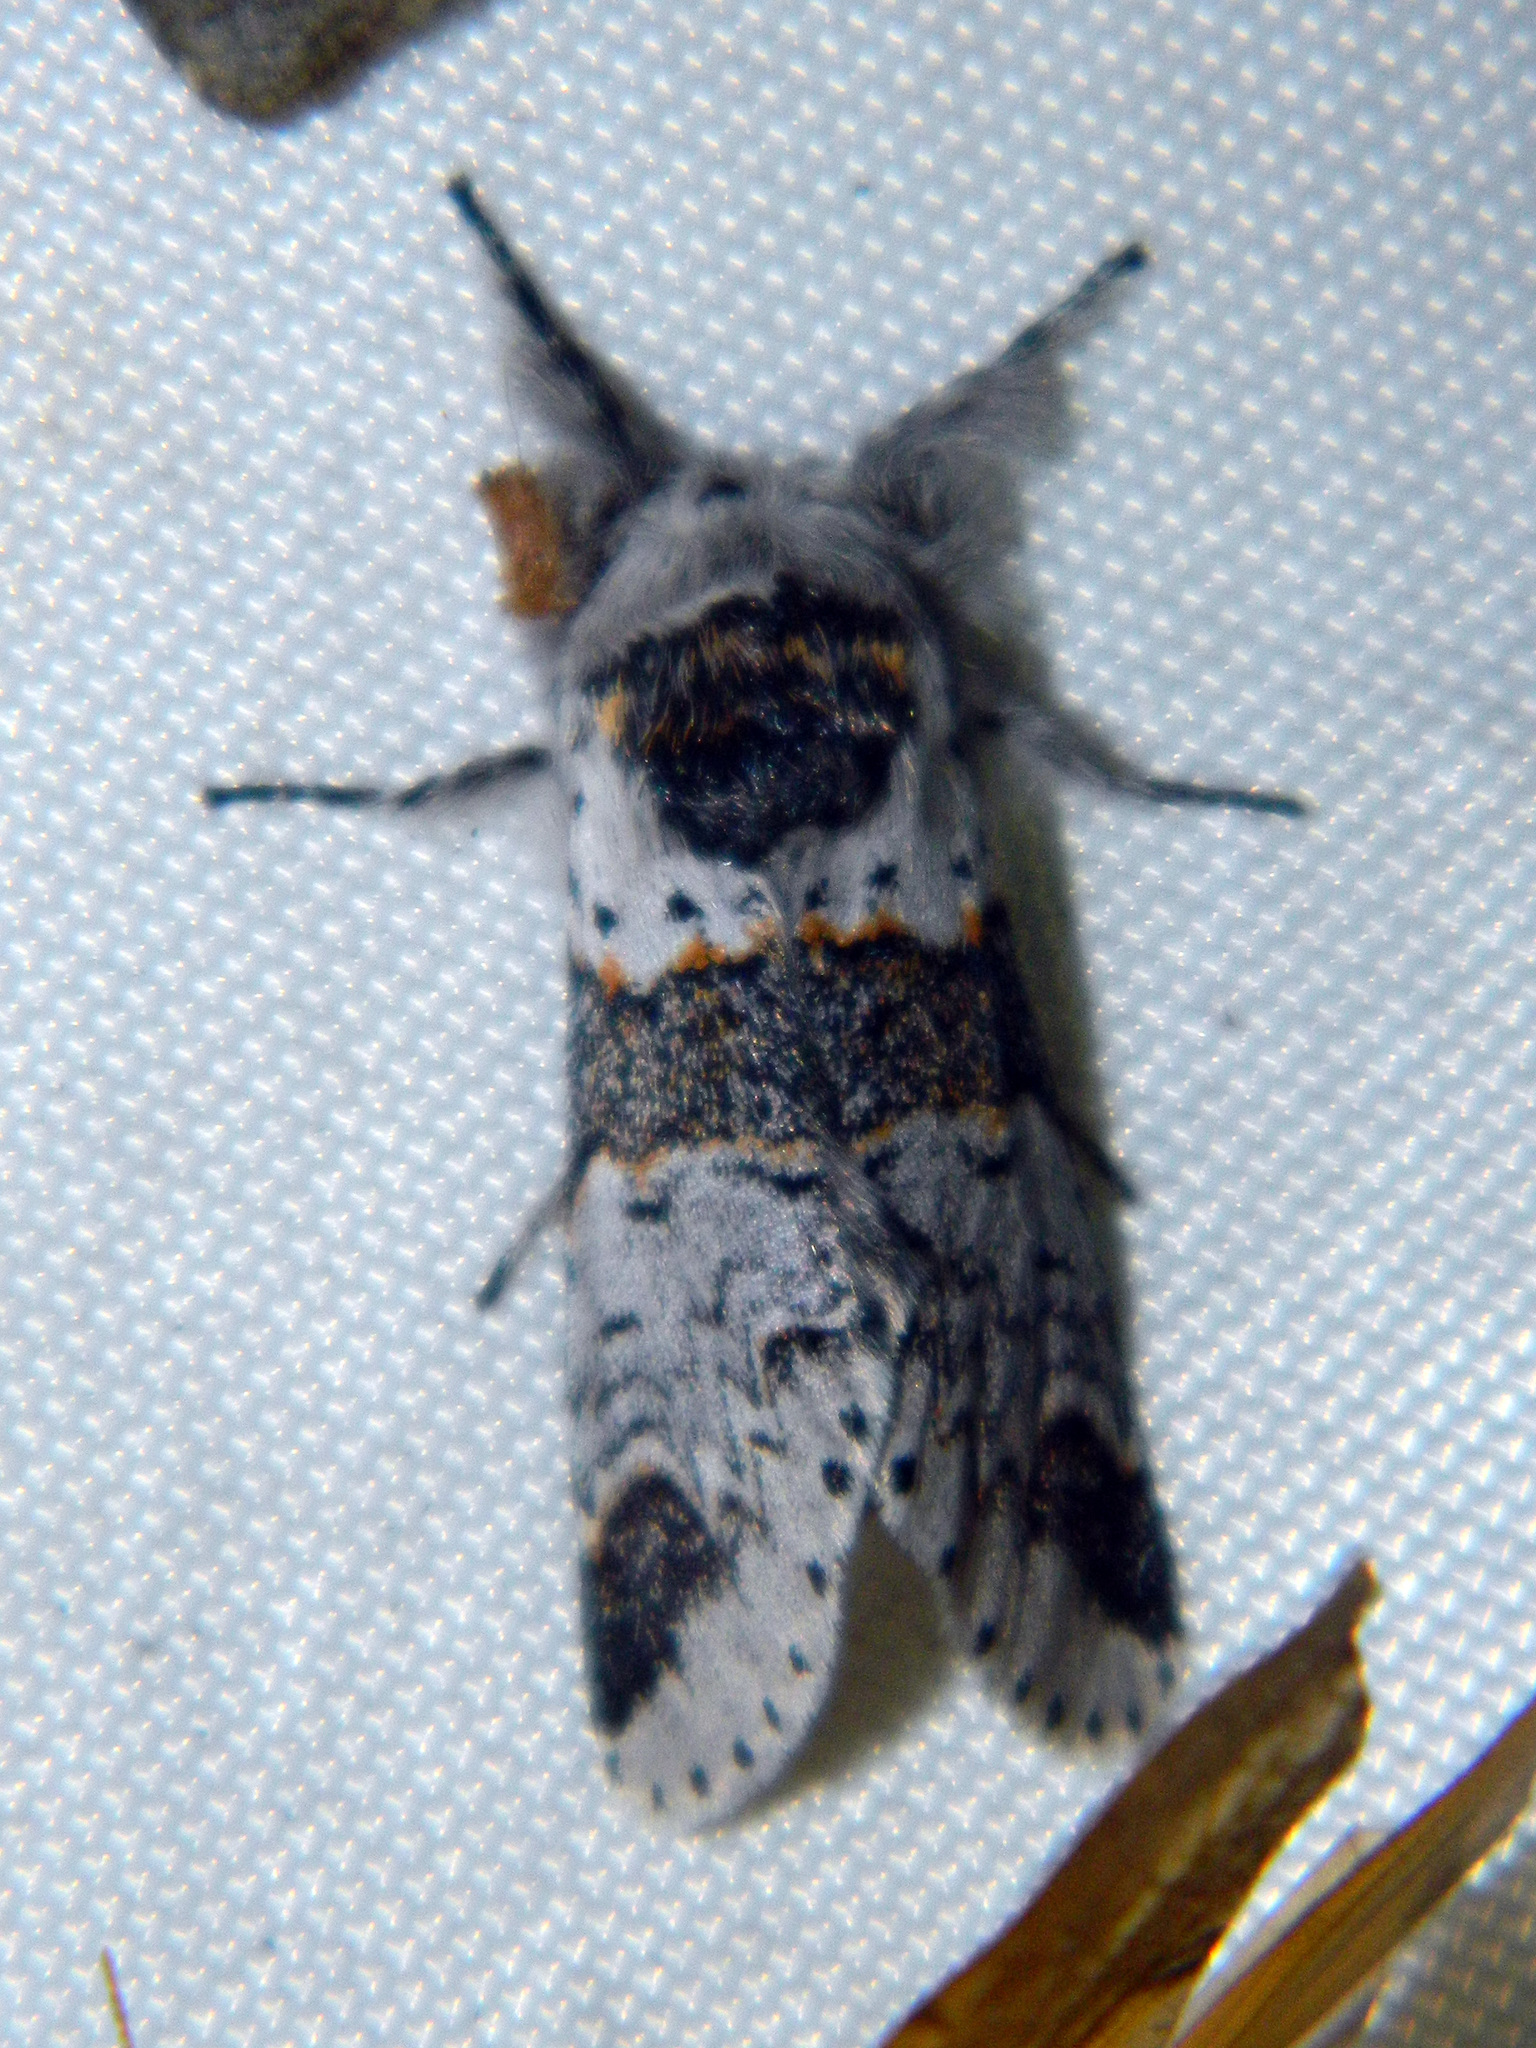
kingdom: Animalia
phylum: Arthropoda
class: Insecta
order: Lepidoptera
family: Notodontidae
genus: Furcula
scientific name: Furcula occidentalis
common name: Western furcula moth
